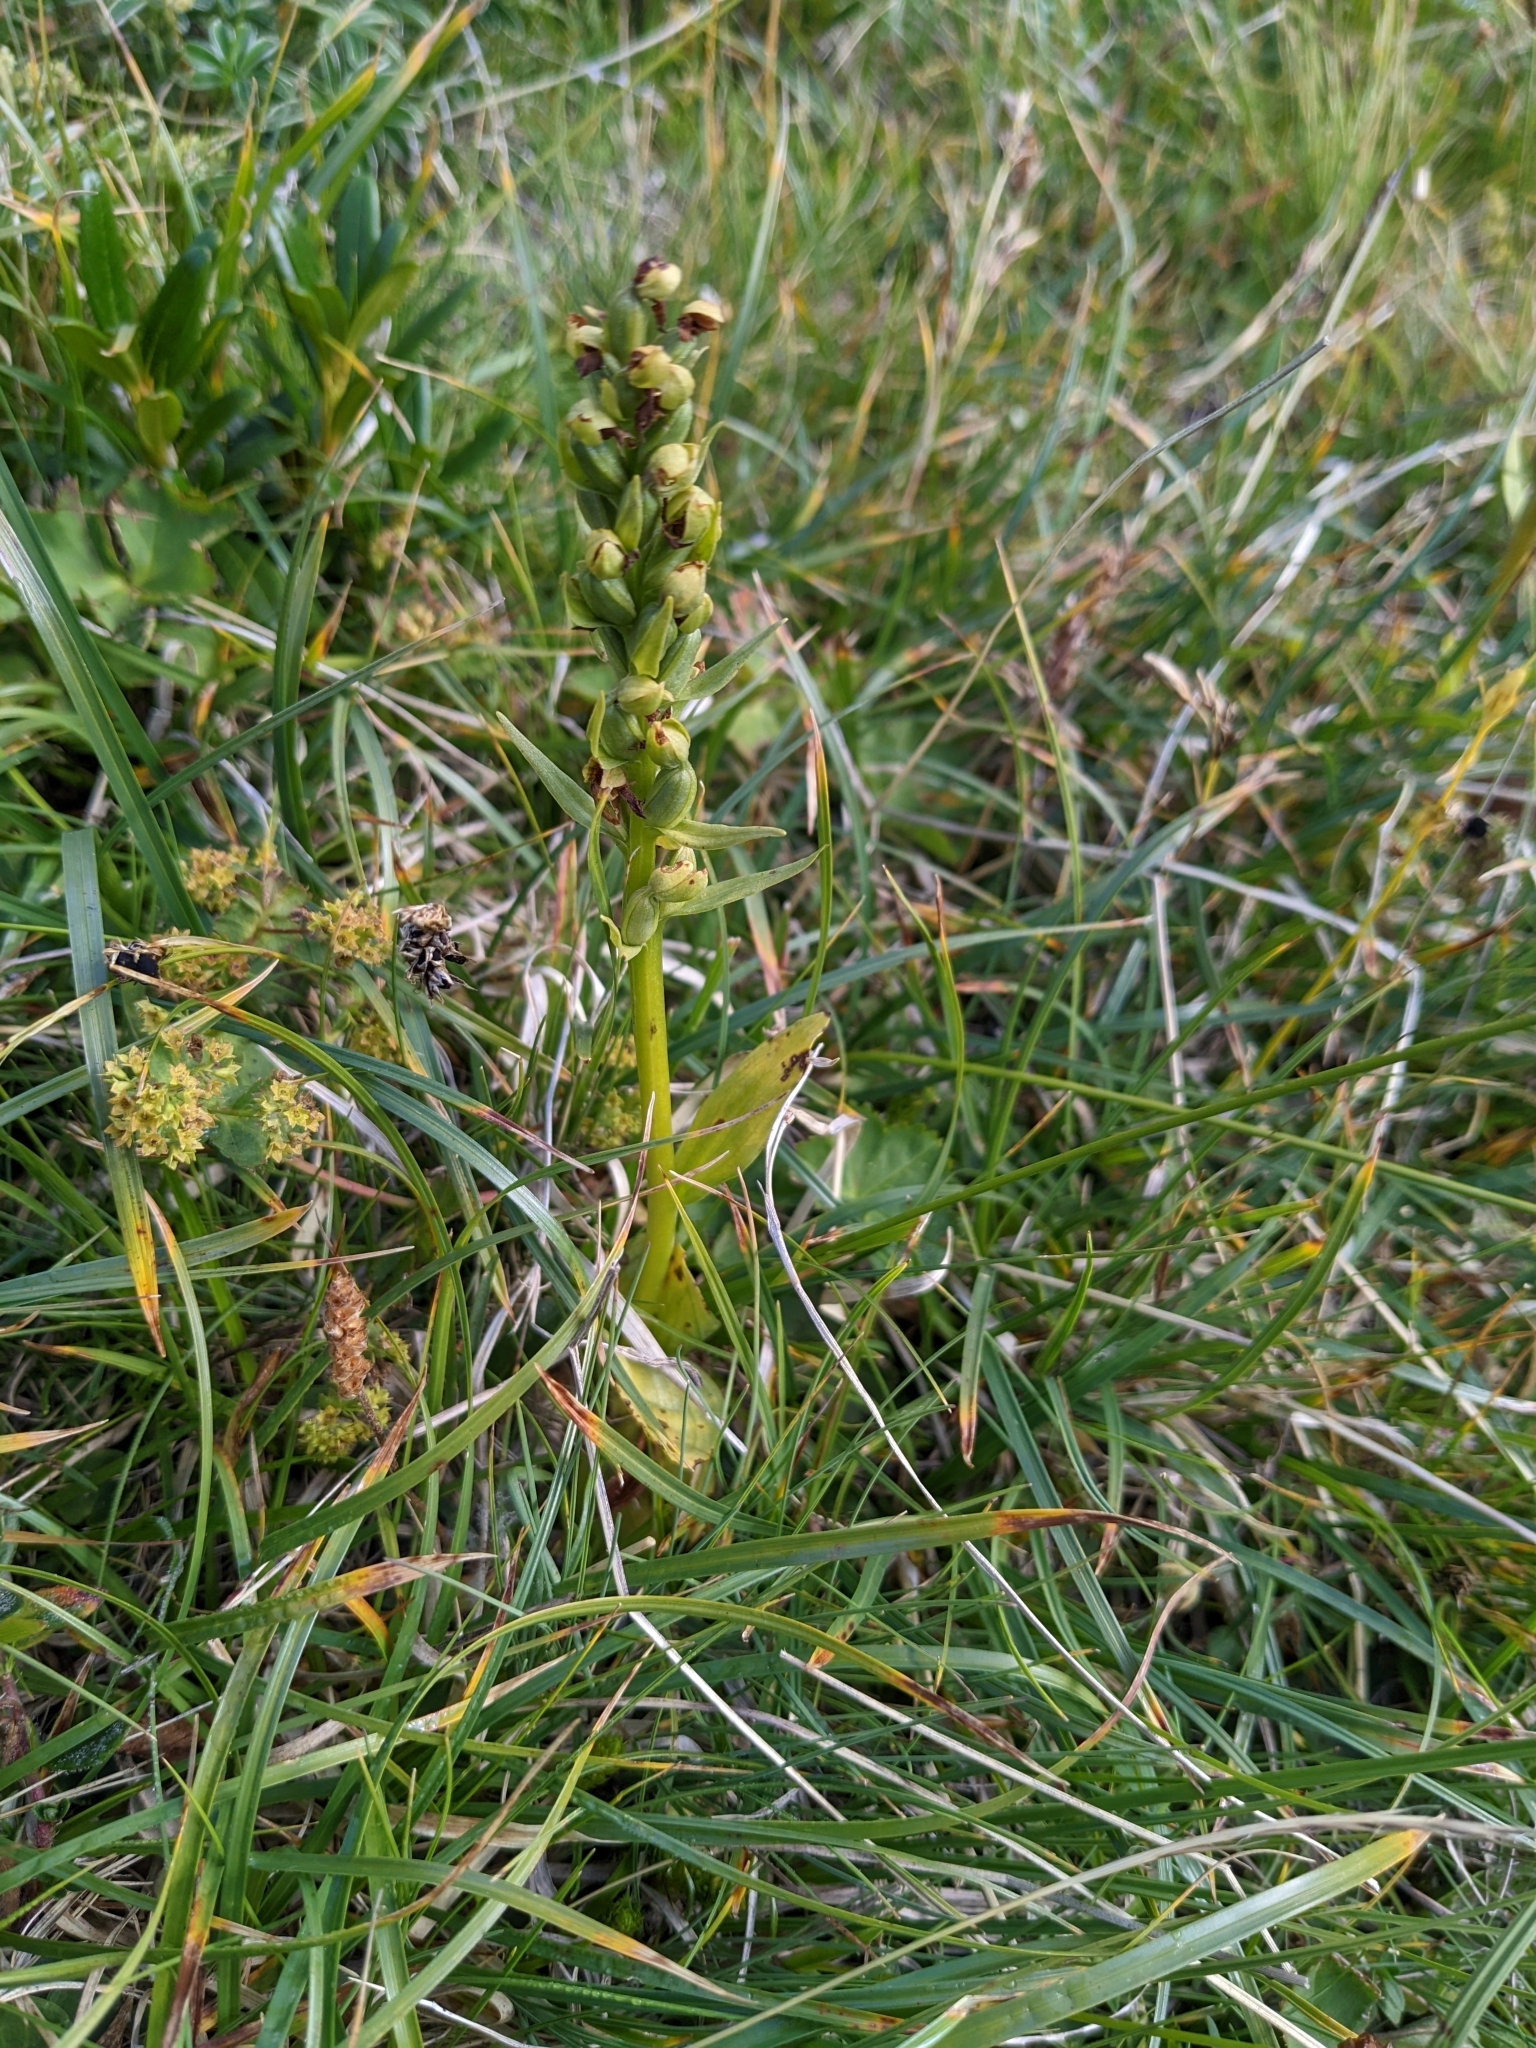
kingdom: Plantae
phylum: Tracheophyta
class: Liliopsida
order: Asparagales
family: Orchidaceae
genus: Dactylorhiza
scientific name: Dactylorhiza viridis
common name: Longbract frog orchid
